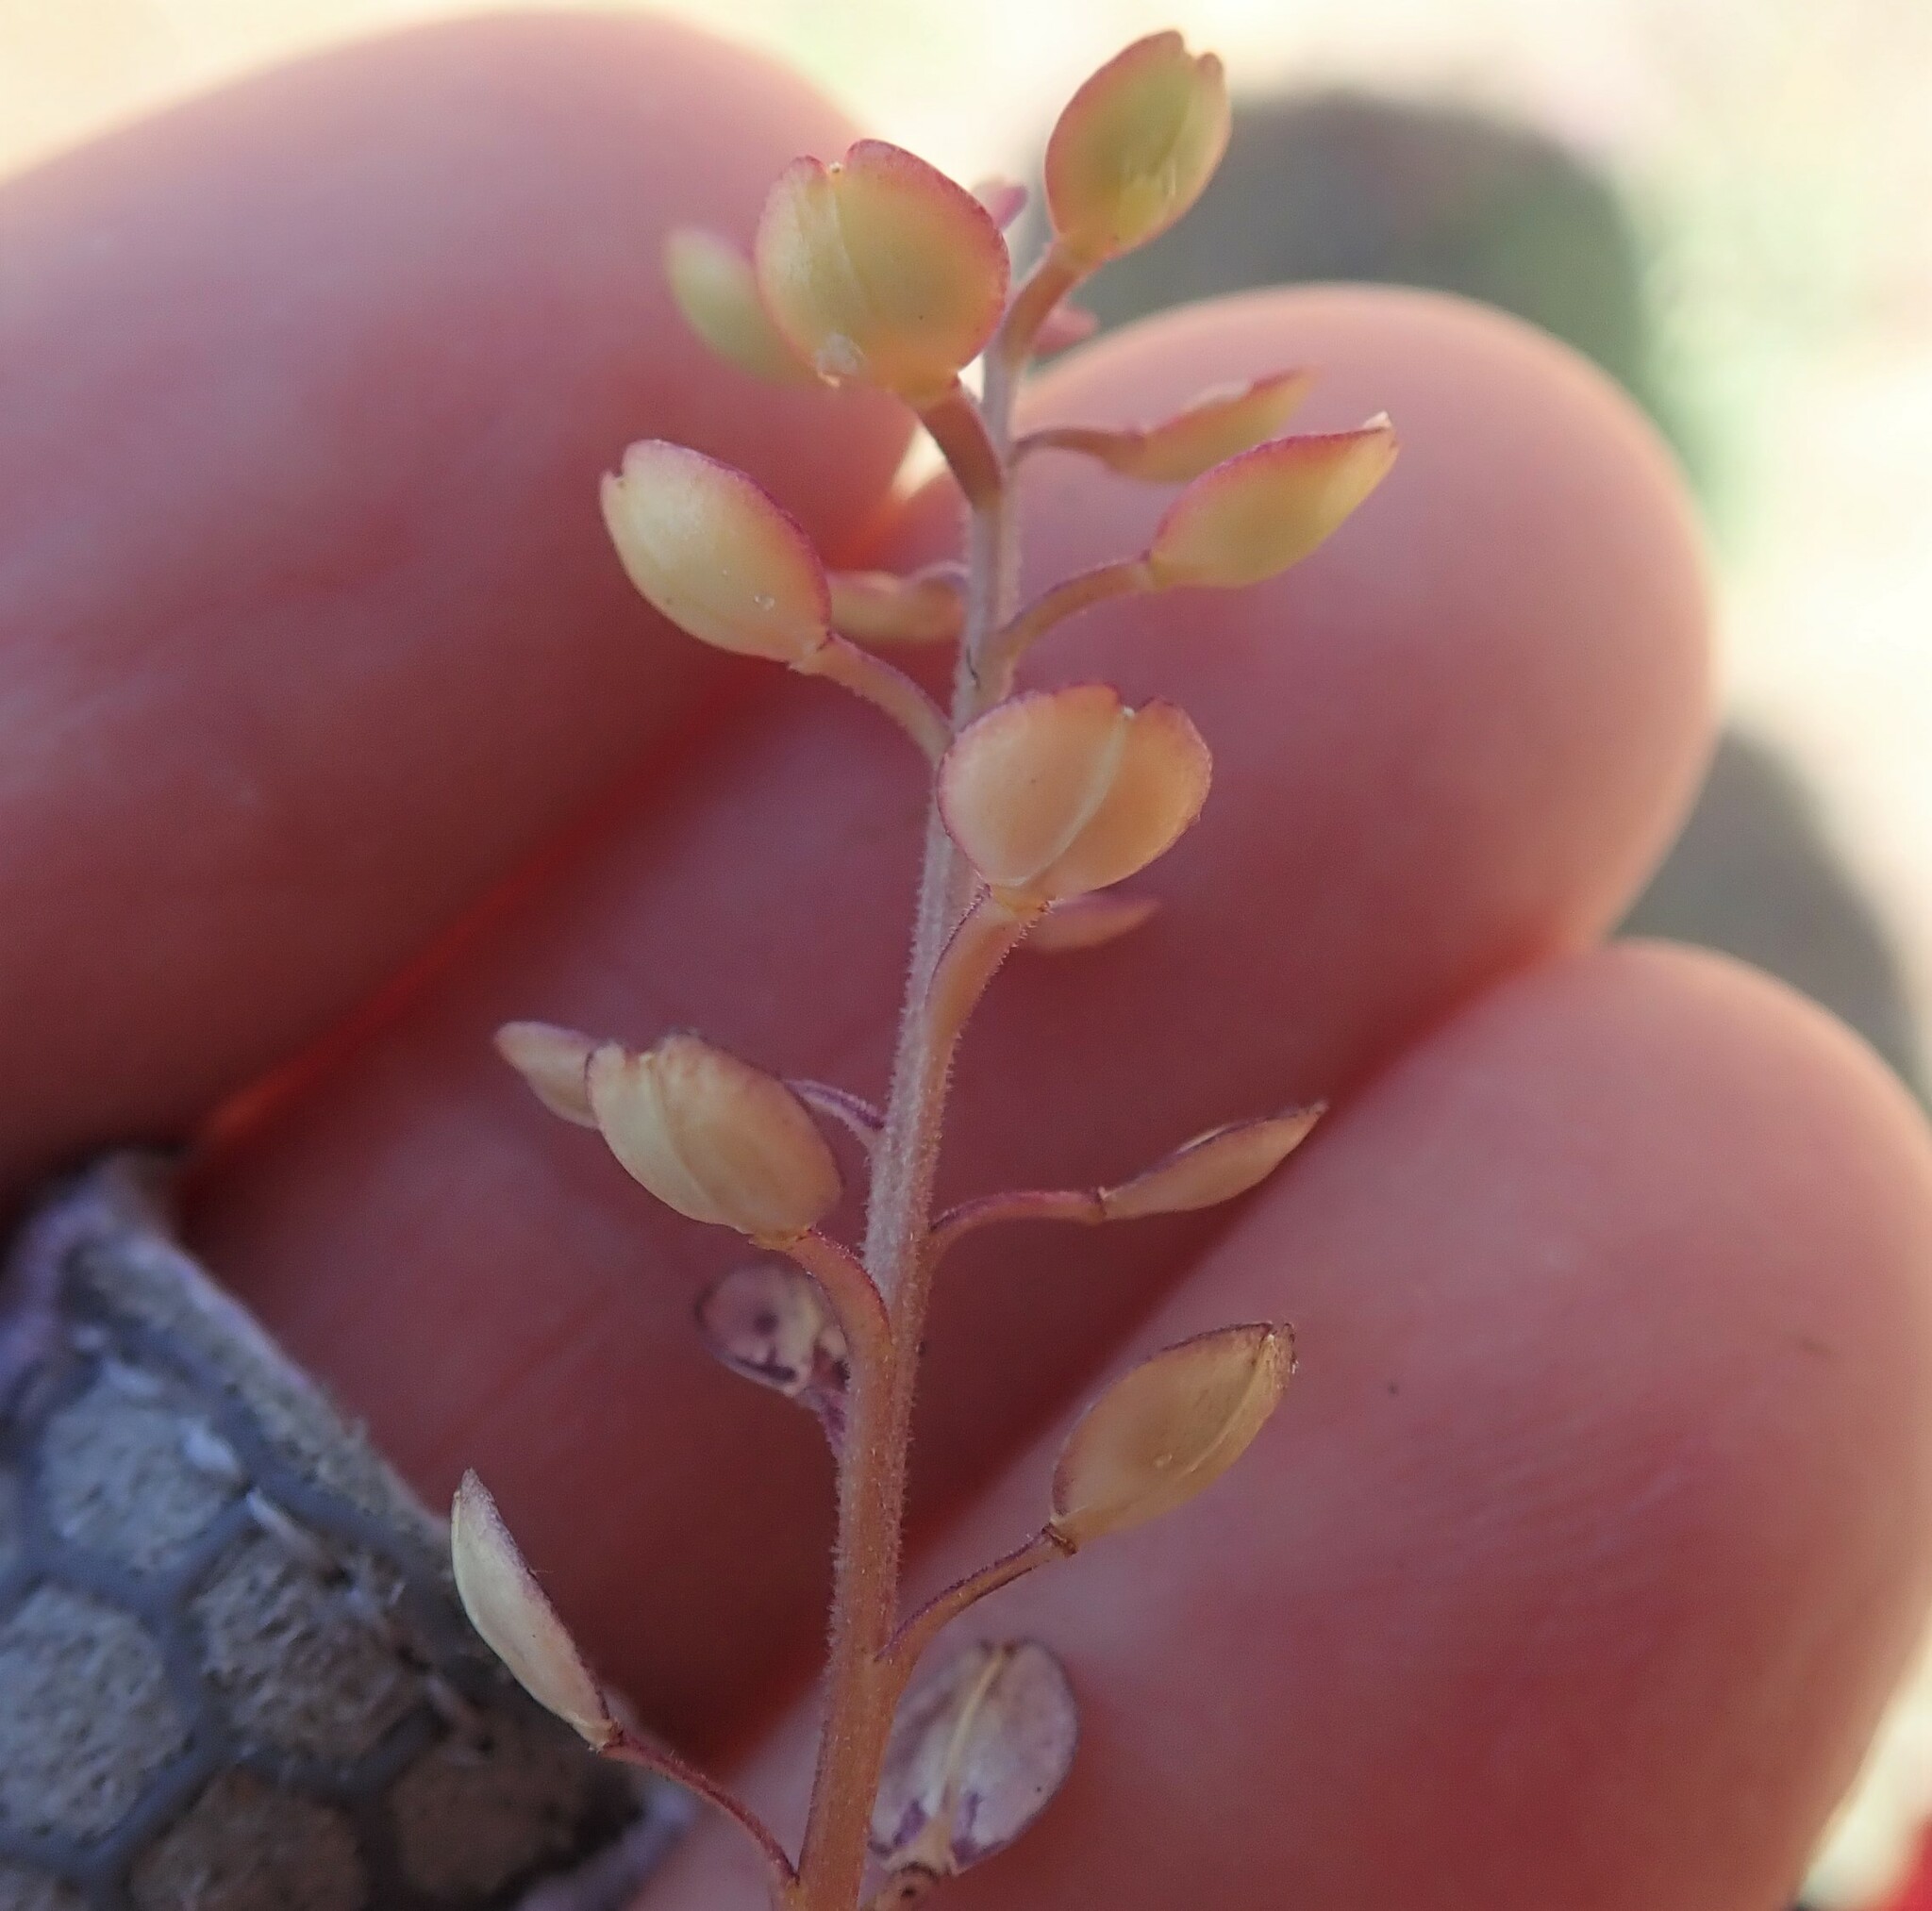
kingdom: Plantae
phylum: Tracheophyta
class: Magnoliopsida
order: Brassicales
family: Brassicaceae
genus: Lepidium
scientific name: Lepidium nitidum
